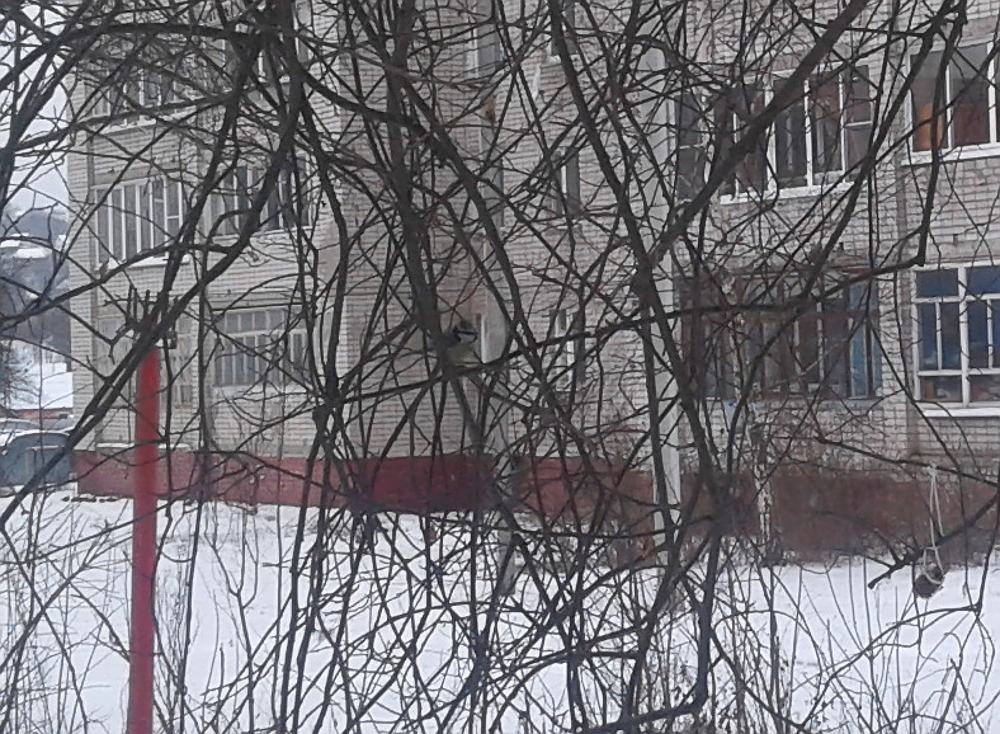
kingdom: Animalia
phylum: Chordata
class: Aves
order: Passeriformes
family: Paridae
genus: Cyanistes
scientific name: Cyanistes caeruleus
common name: Eurasian blue tit
